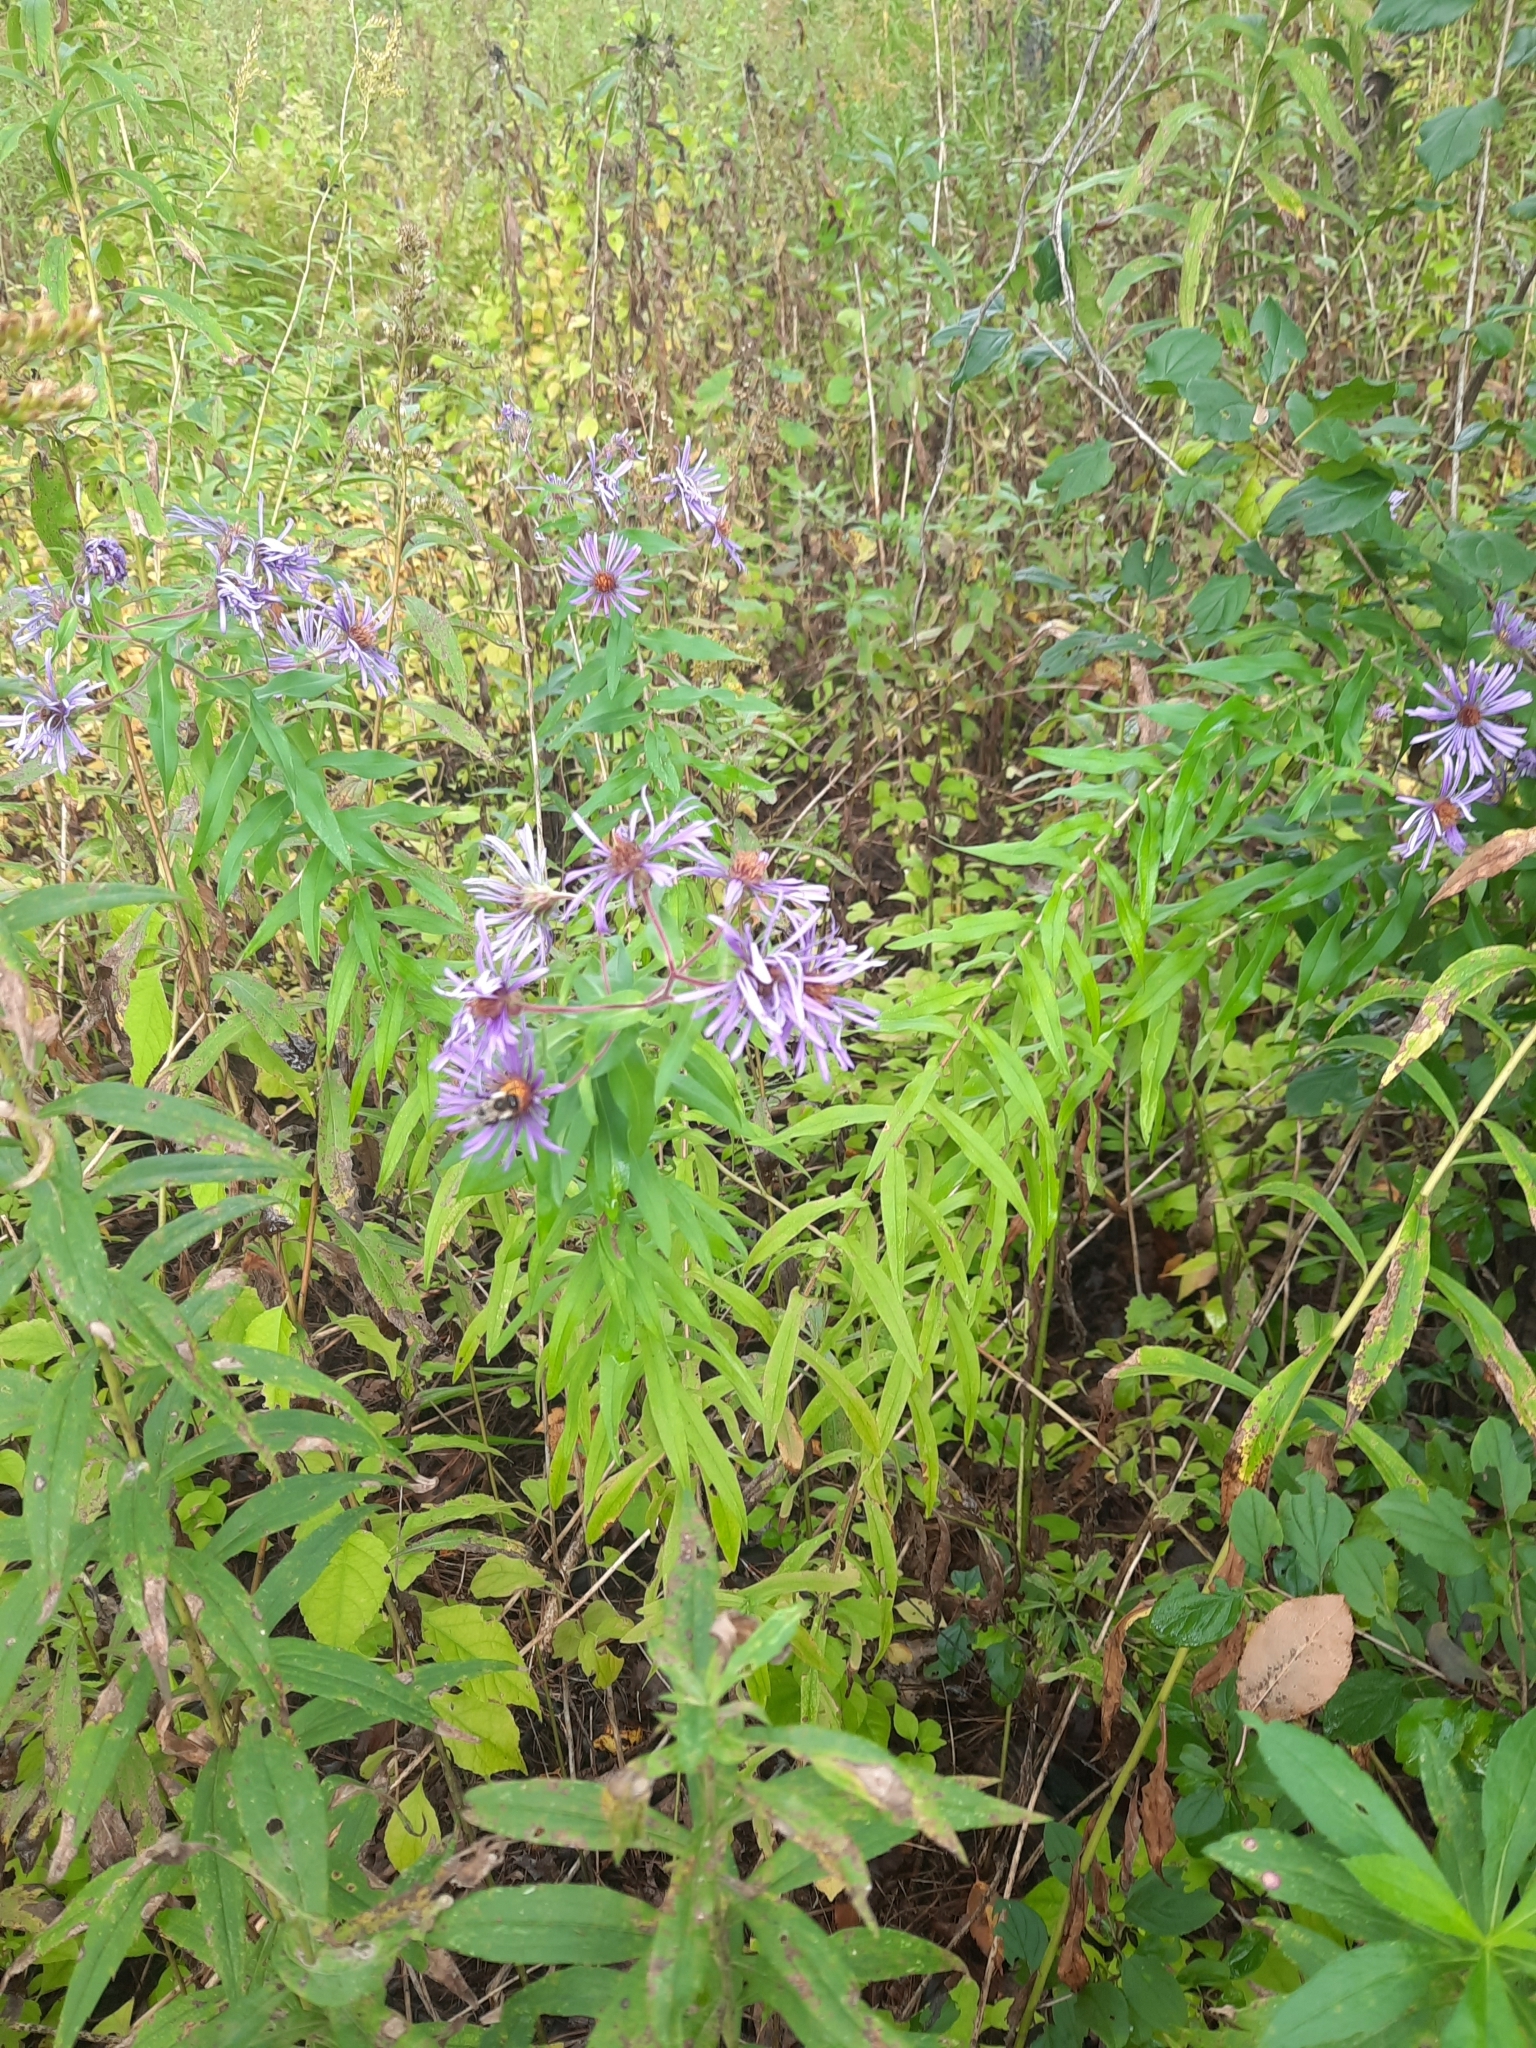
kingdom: Plantae
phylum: Tracheophyta
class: Magnoliopsida
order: Asterales
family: Asteraceae
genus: Symphyotrichum
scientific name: Symphyotrichum novae-angliae
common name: Michaelmas daisy
